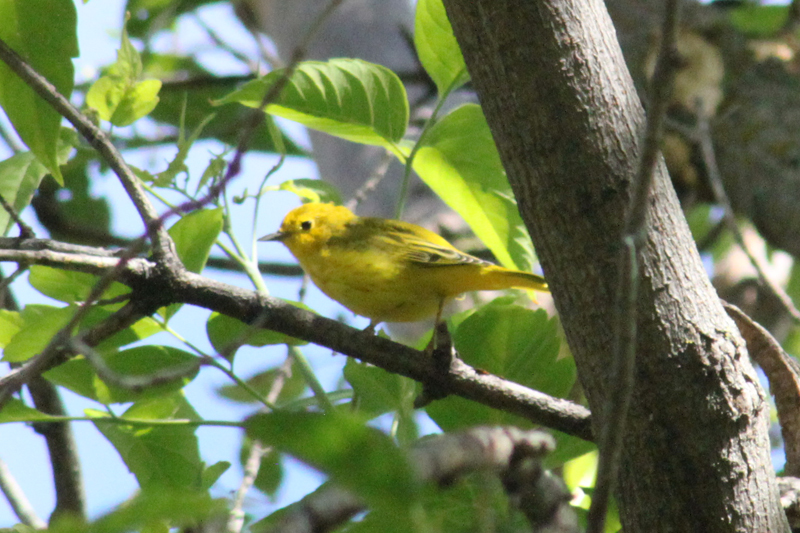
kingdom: Animalia
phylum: Chordata
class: Aves
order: Passeriformes
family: Parulidae
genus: Setophaga
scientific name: Setophaga petechia
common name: Yellow warbler
